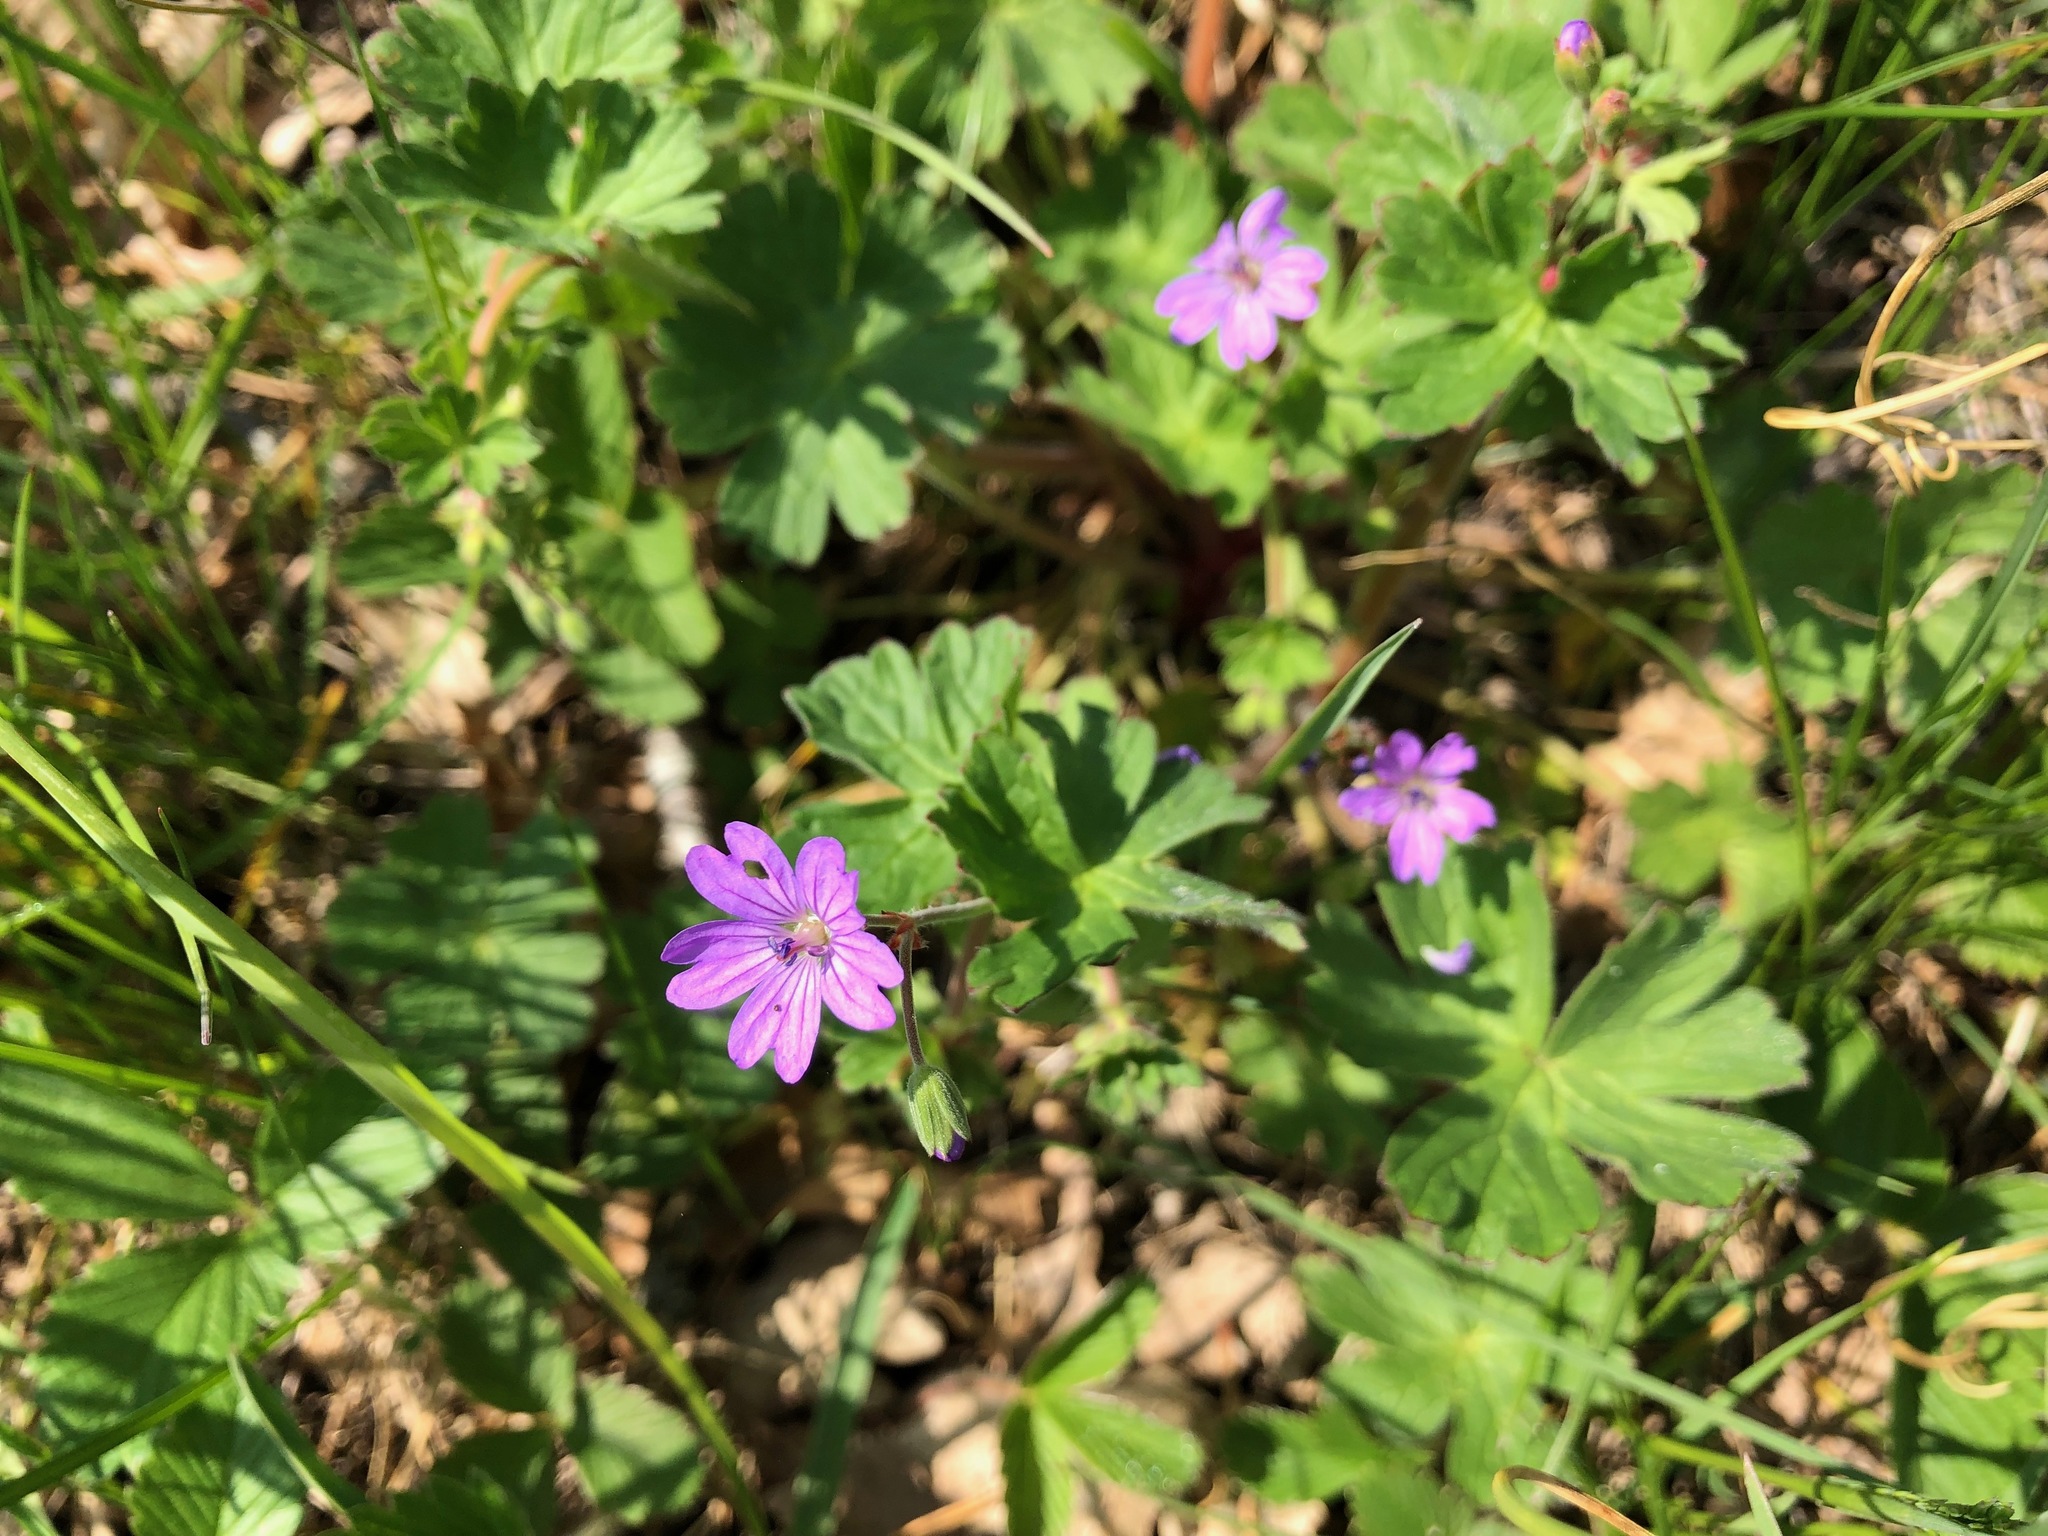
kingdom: Plantae
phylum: Tracheophyta
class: Magnoliopsida
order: Geraniales
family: Geraniaceae
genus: Geranium
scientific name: Geranium pyrenaicum
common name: Hedgerow crane's-bill
